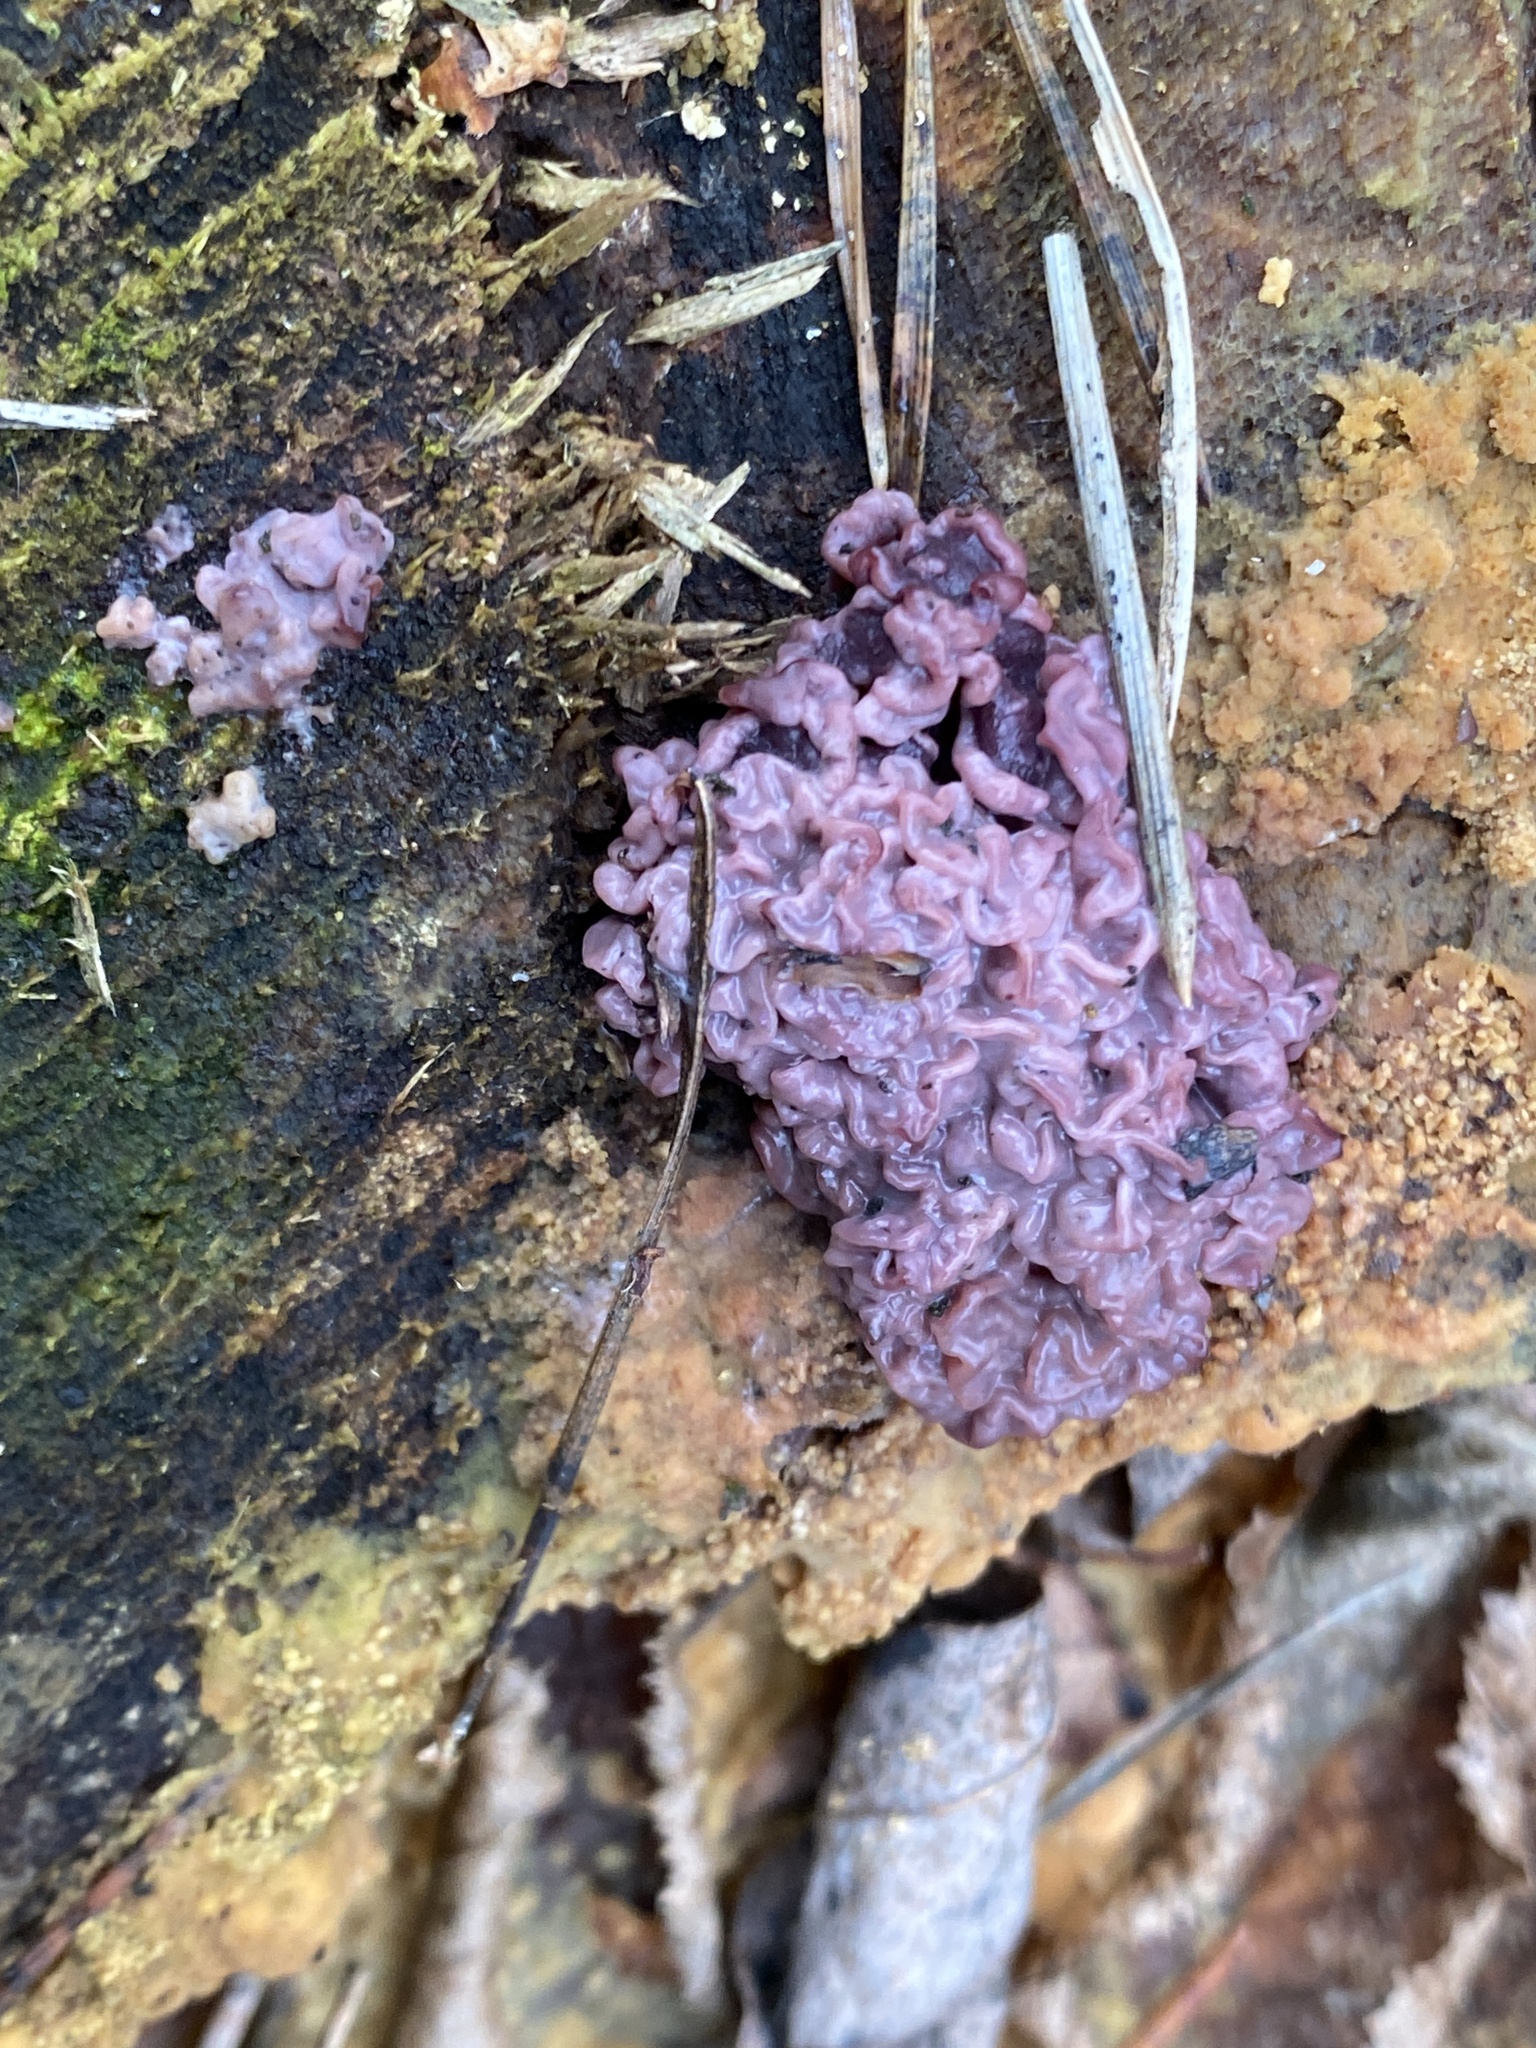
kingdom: Fungi
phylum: Ascomycota
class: Leotiomycetes
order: Helotiales
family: Gelatinodiscaceae
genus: Ascocoryne
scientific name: Ascocoryne sarcoides
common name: Purple jellydisc
